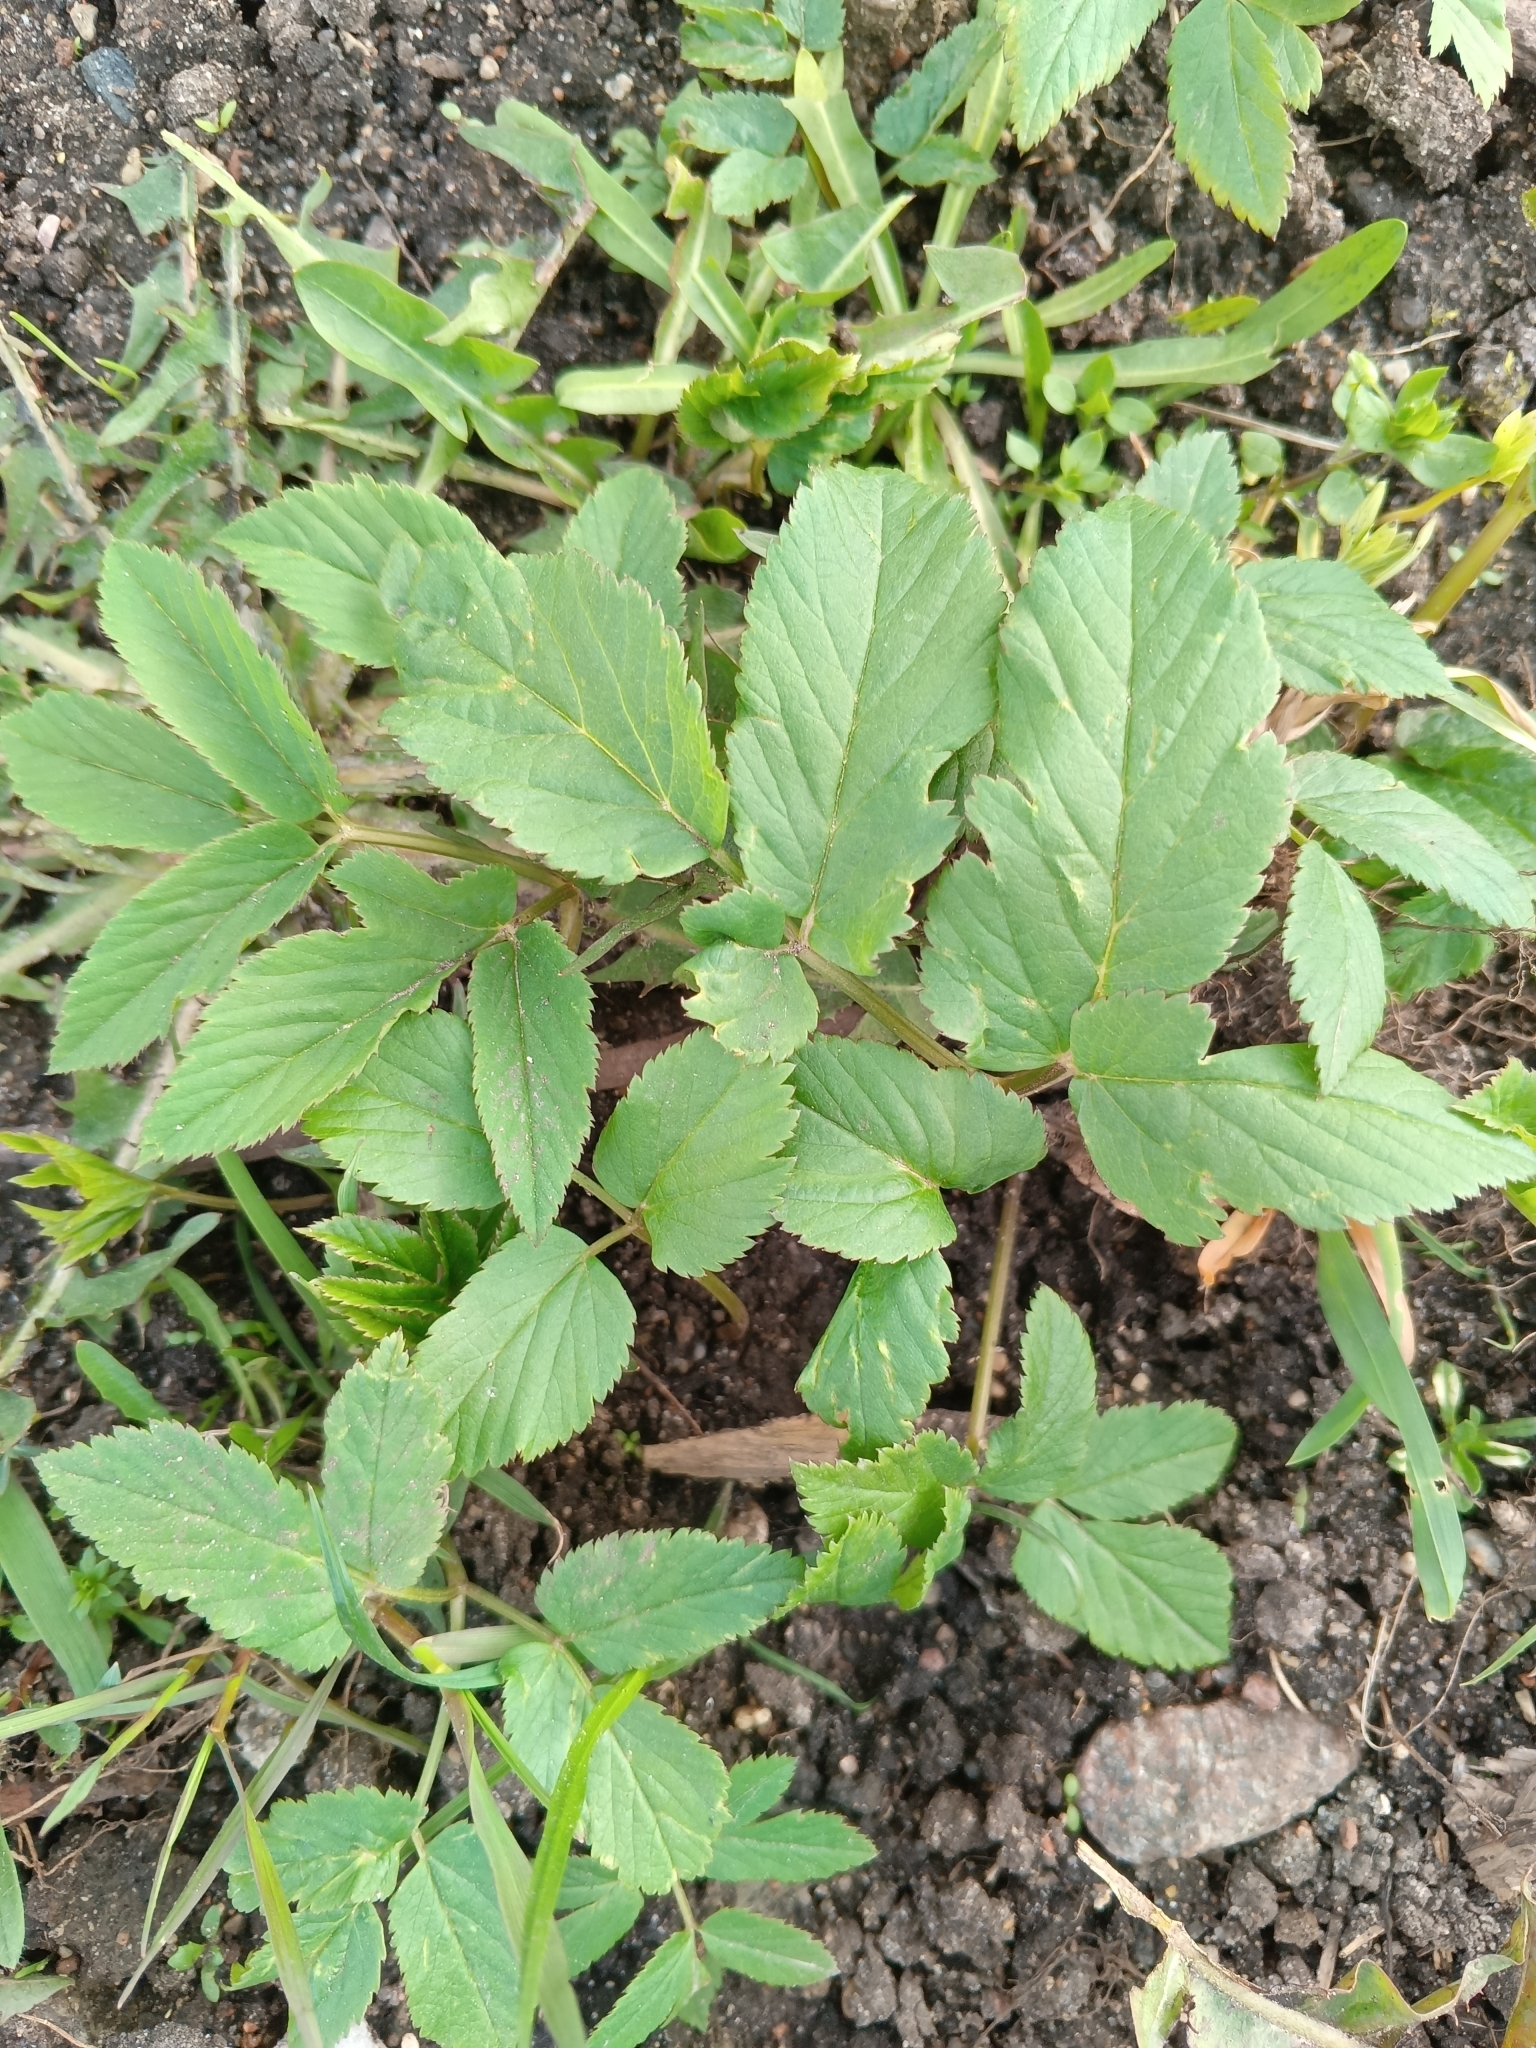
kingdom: Plantae
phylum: Tracheophyta
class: Magnoliopsida
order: Apiales
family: Apiaceae
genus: Aegopodium
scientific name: Aegopodium podagraria
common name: Ground-elder
